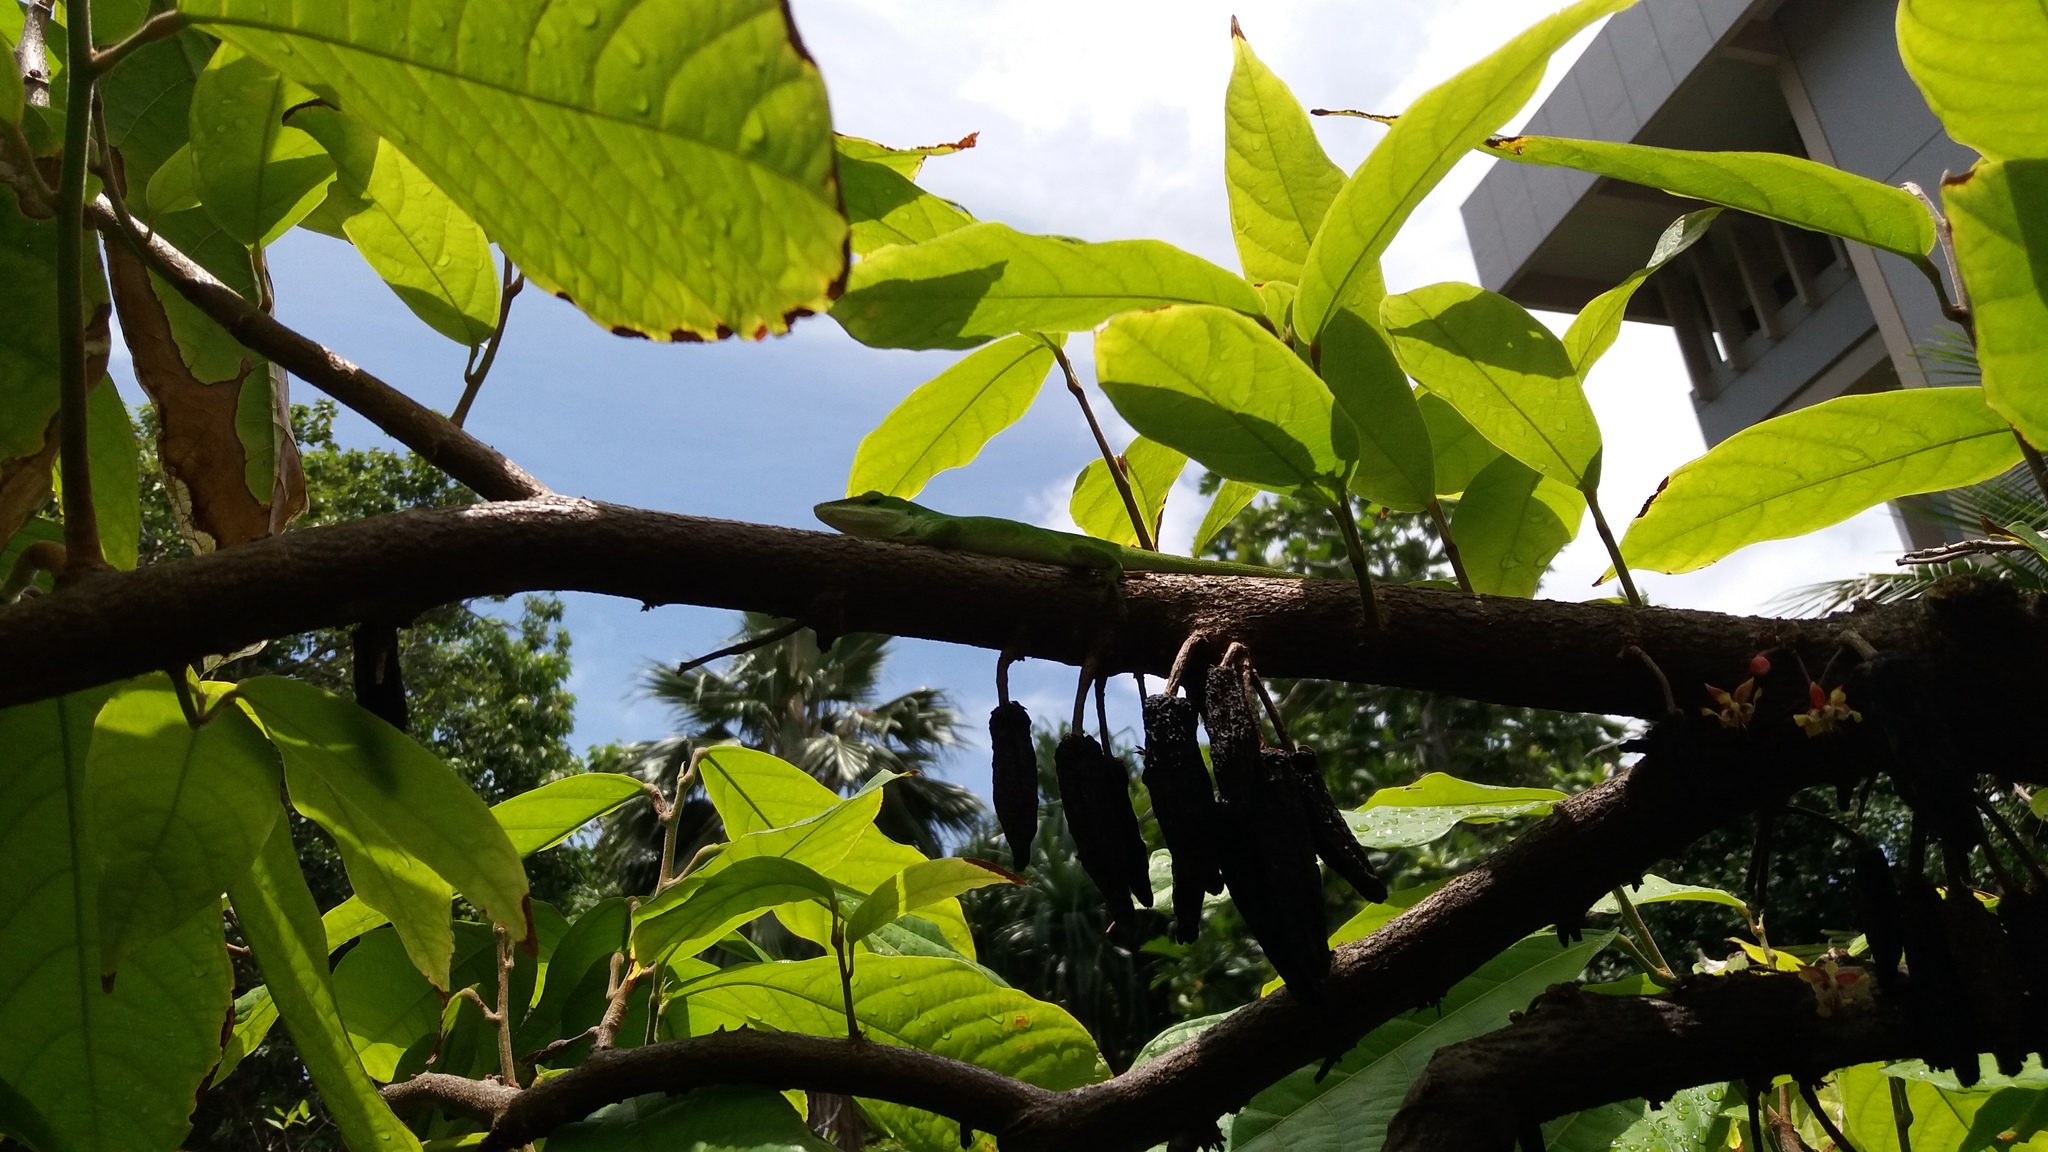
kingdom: Animalia
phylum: Chordata
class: Squamata
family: Dactyloidae
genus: Anolis
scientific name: Anolis carolinensis
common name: Green anole
